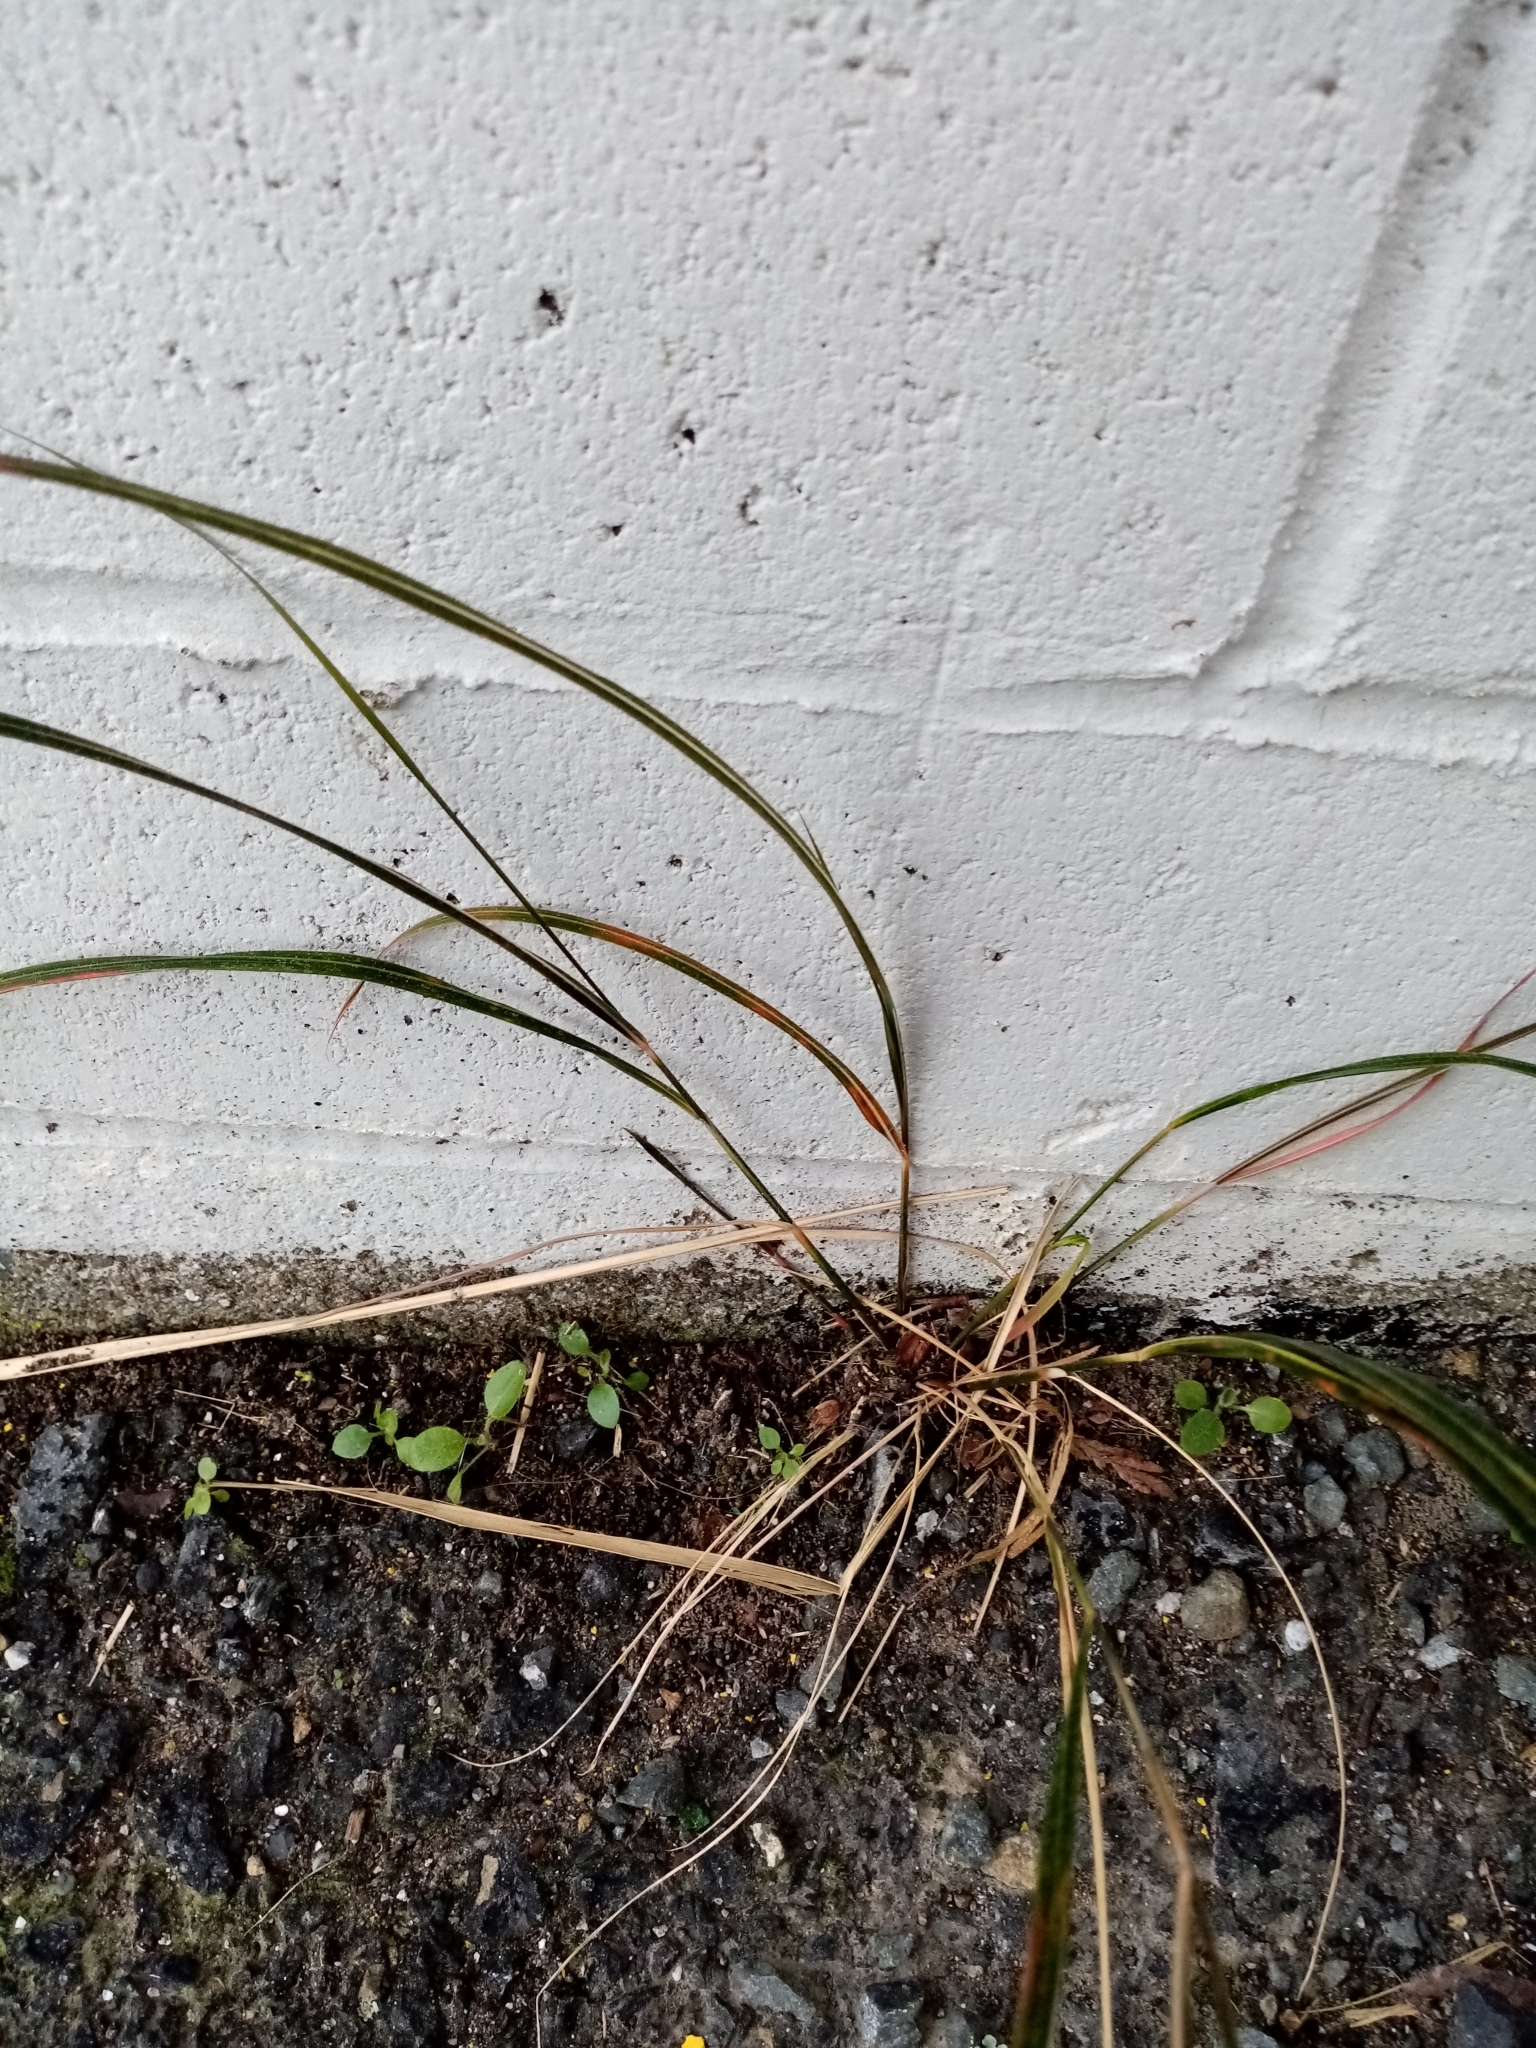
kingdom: Plantae
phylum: Tracheophyta
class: Liliopsida
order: Poales
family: Poaceae
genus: Anemanthele
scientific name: Anemanthele lessoniana
